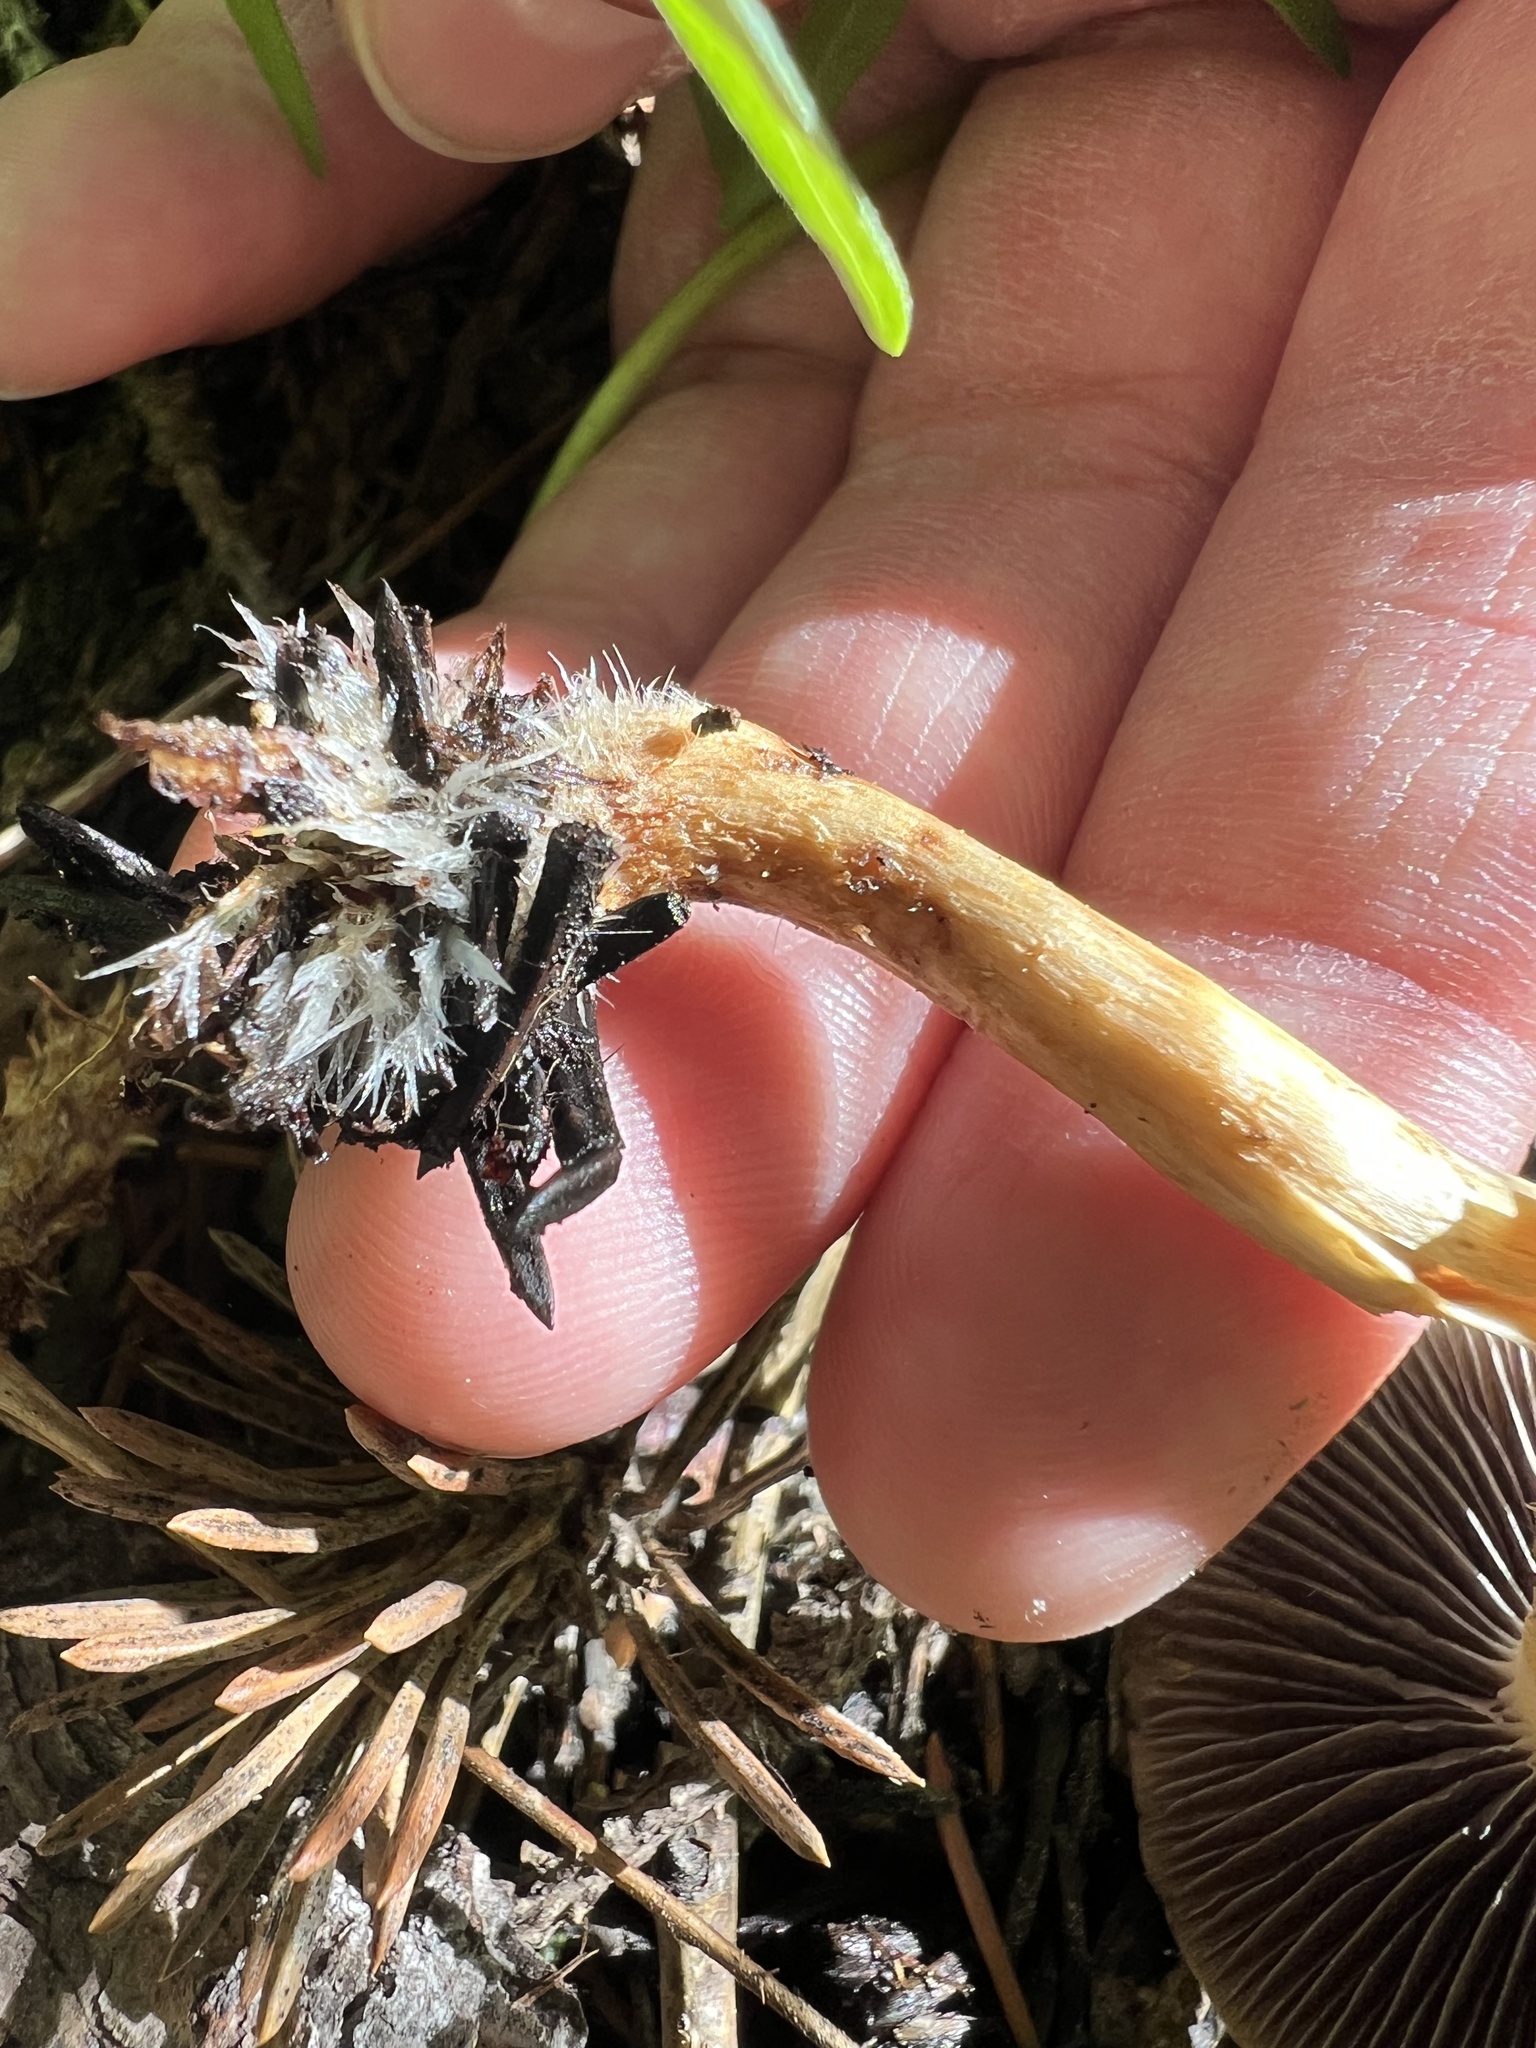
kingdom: Fungi
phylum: Basidiomycota
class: Agaricomycetes
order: Agaricales
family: Strophariaceae
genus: Leratiomyces
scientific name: Leratiomyces percevalii
